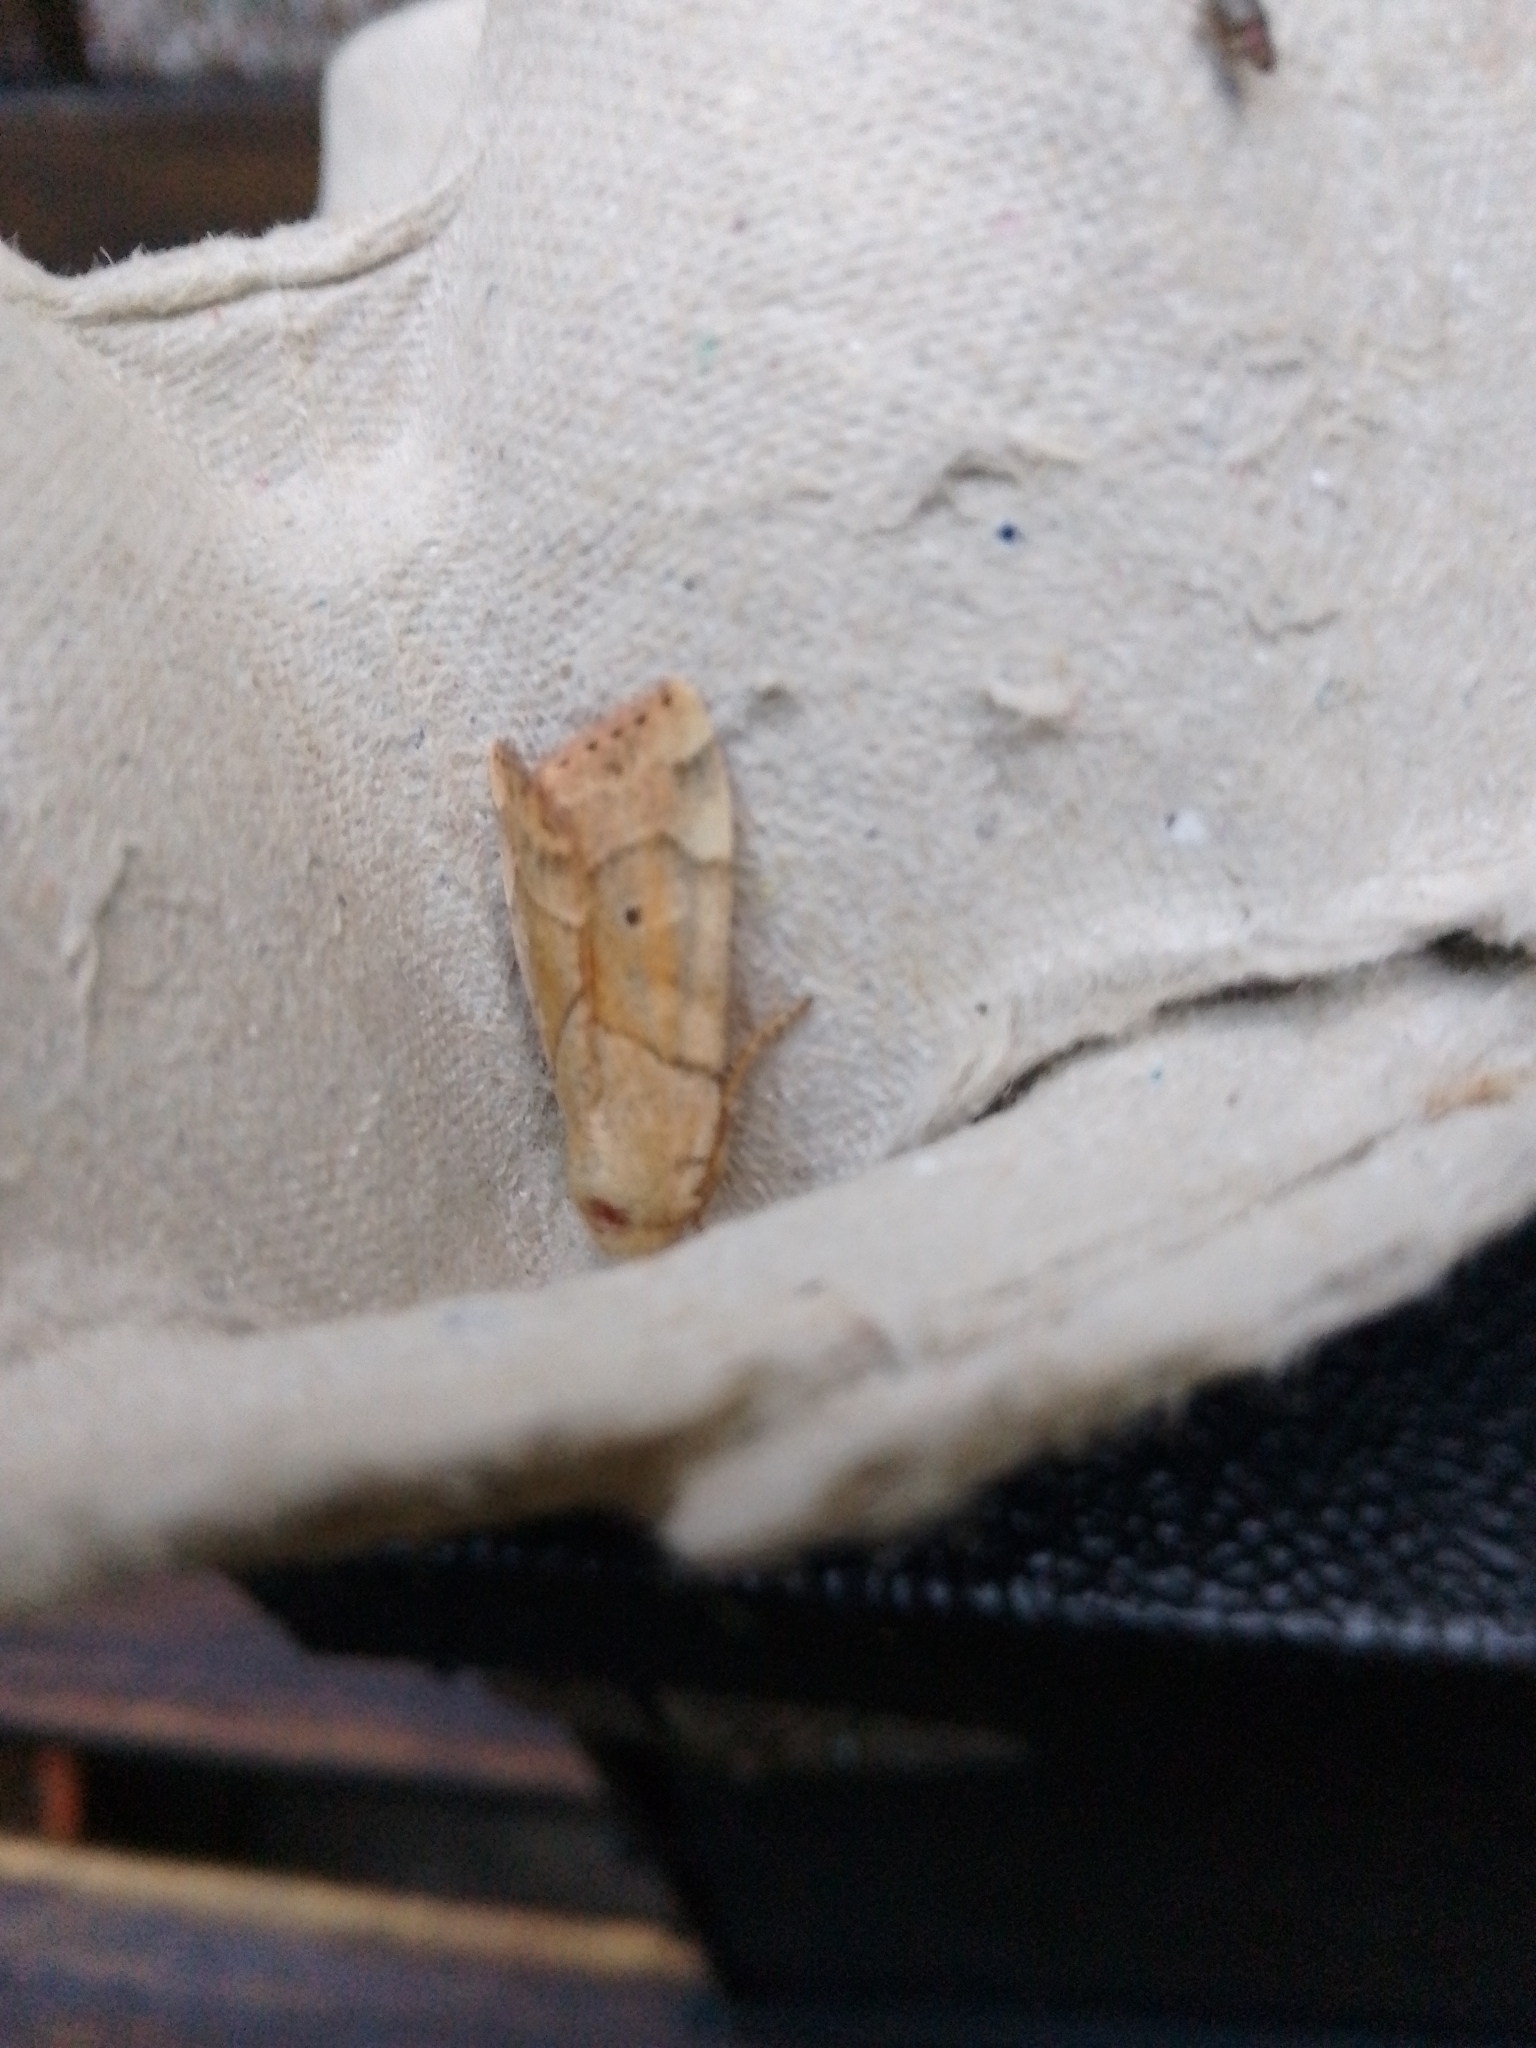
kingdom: Animalia
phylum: Arthropoda
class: Insecta
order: Lepidoptera
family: Noctuidae
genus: Cosmia
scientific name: Cosmia trapezina
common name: Dun-bar
